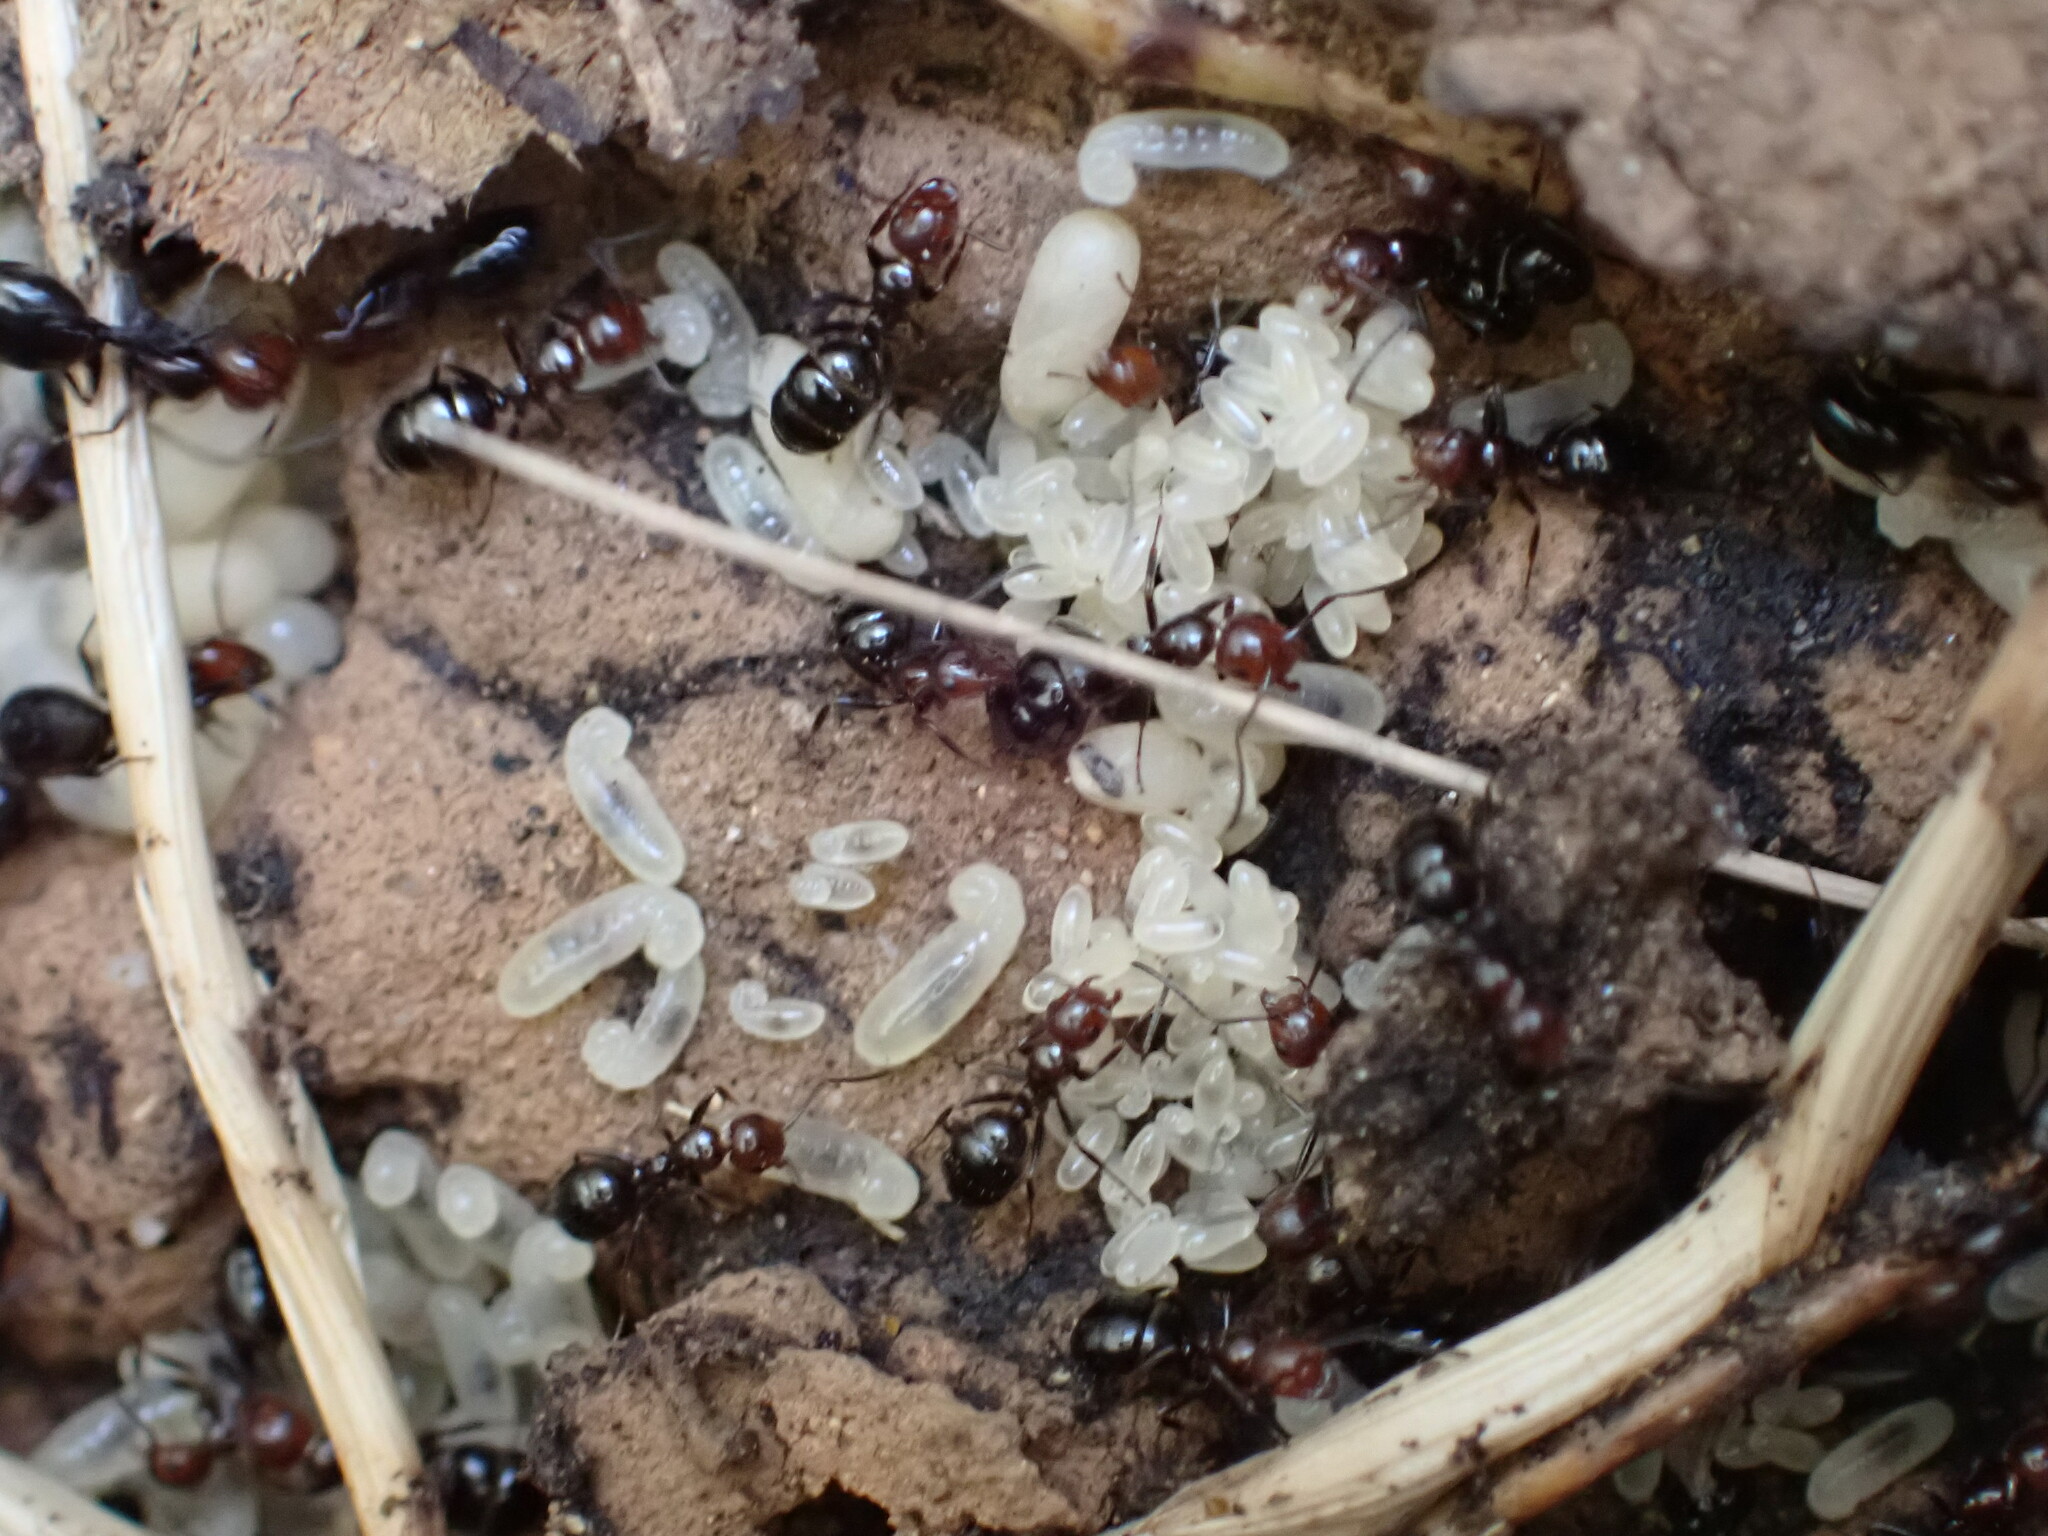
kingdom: Animalia
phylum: Arthropoda
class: Insecta
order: Hymenoptera
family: Formicidae
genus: Camponotus
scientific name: Camponotus lateralis
